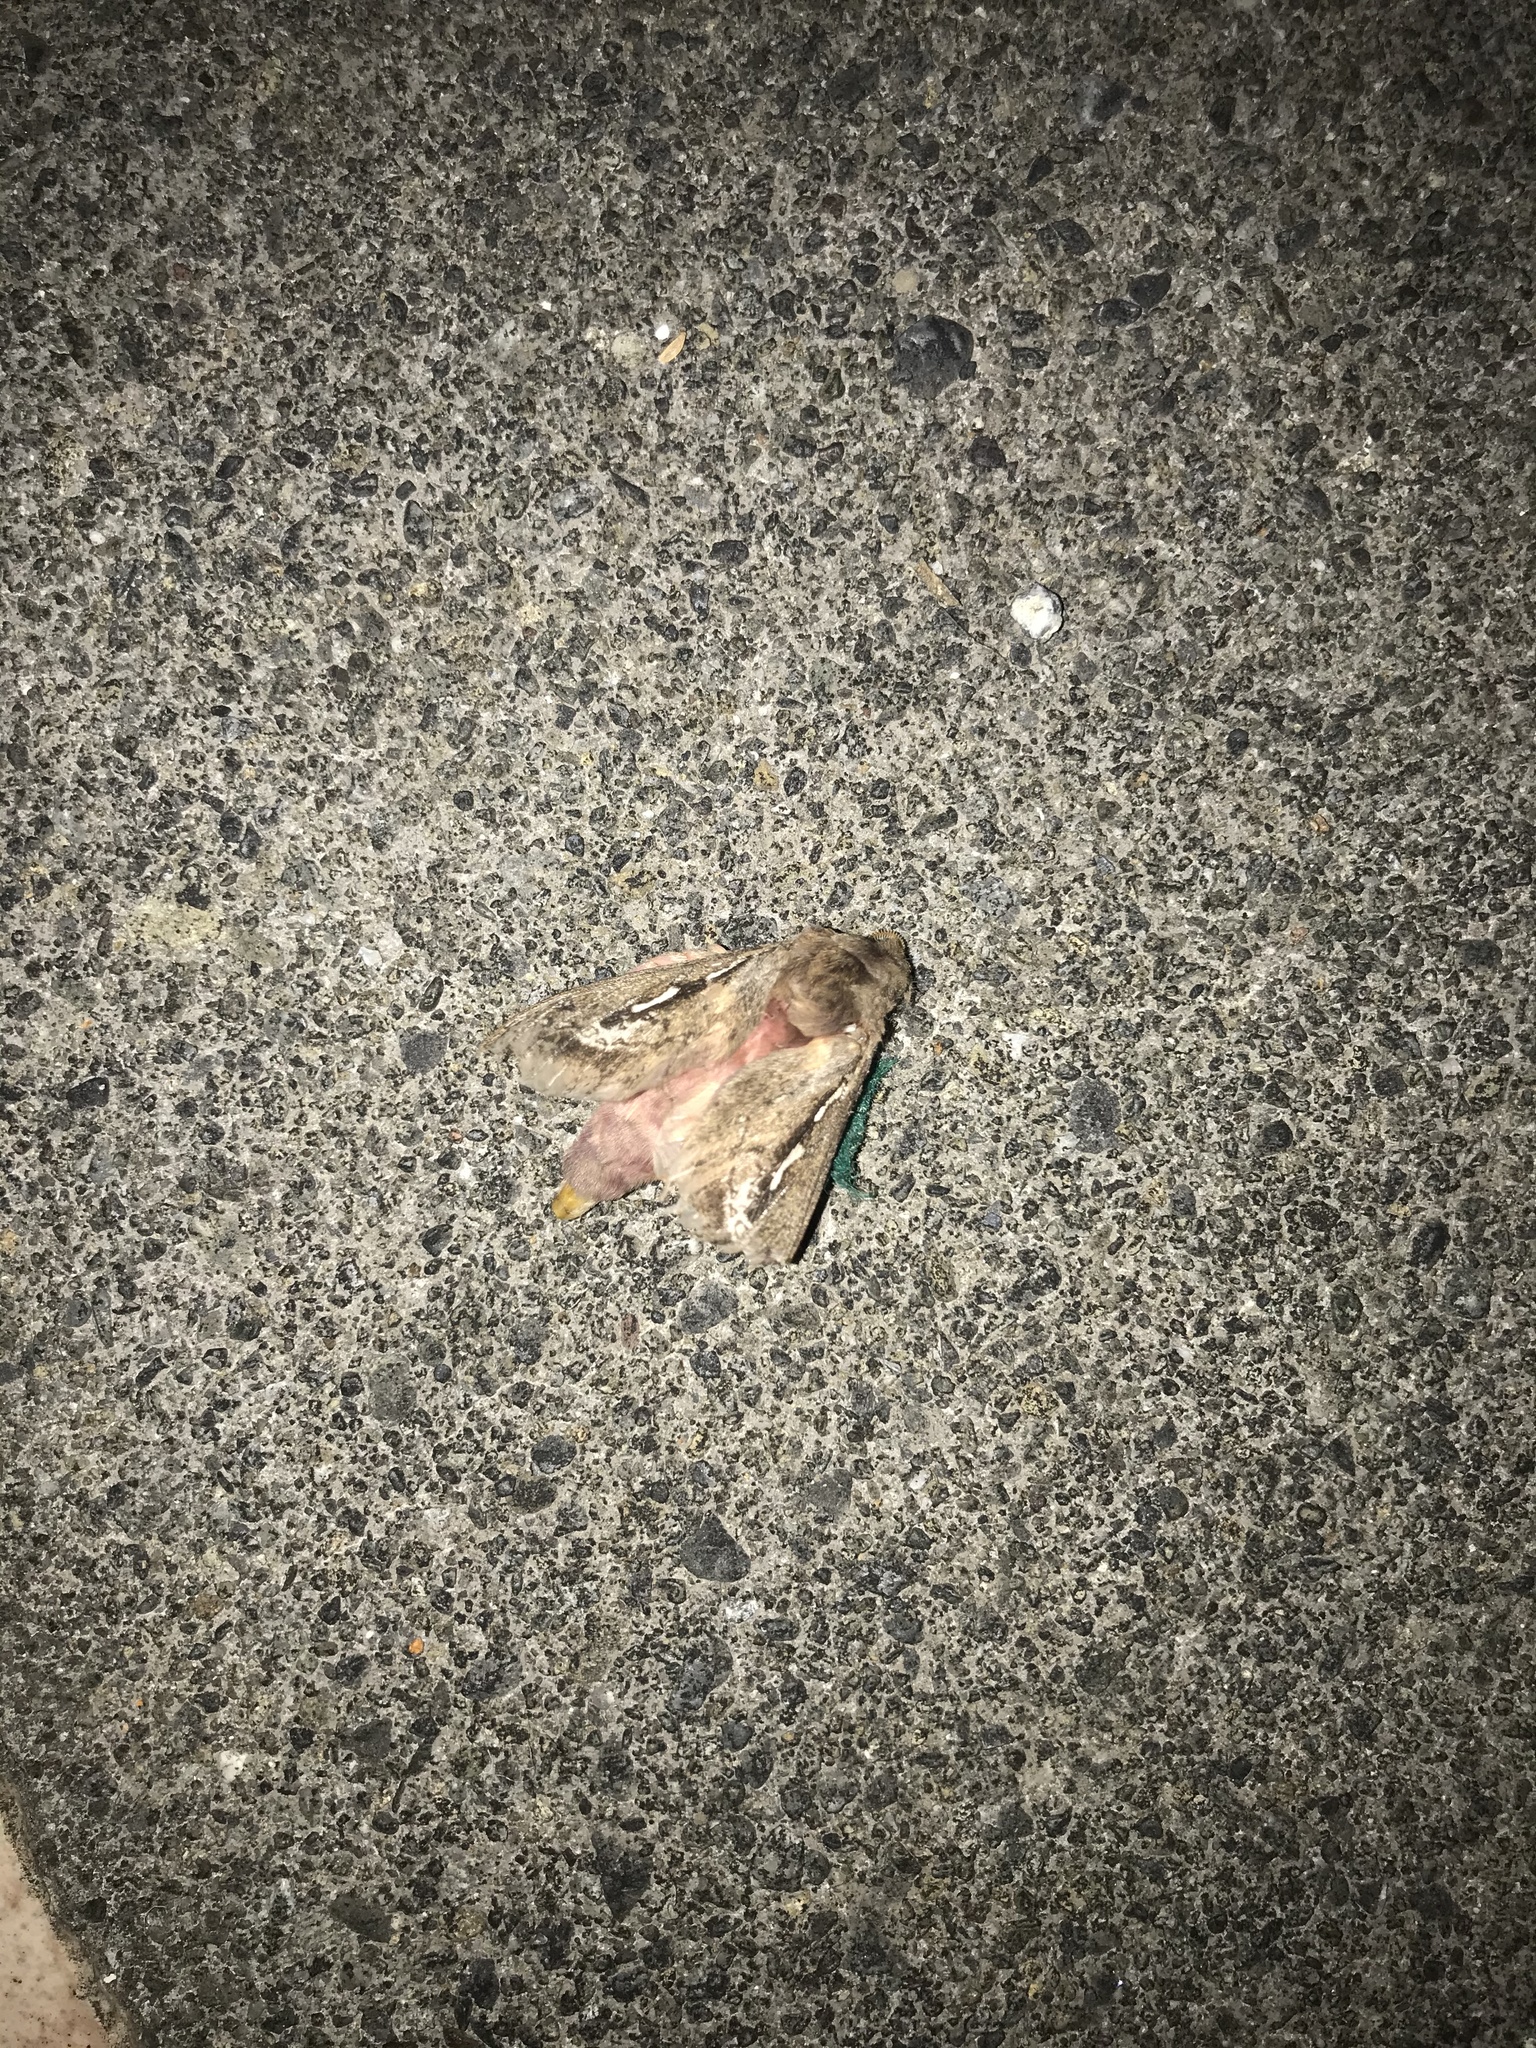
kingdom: Animalia
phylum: Arthropoda
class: Insecta
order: Lepidoptera
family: Hepialidae
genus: Wiseana
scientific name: Wiseana signata
